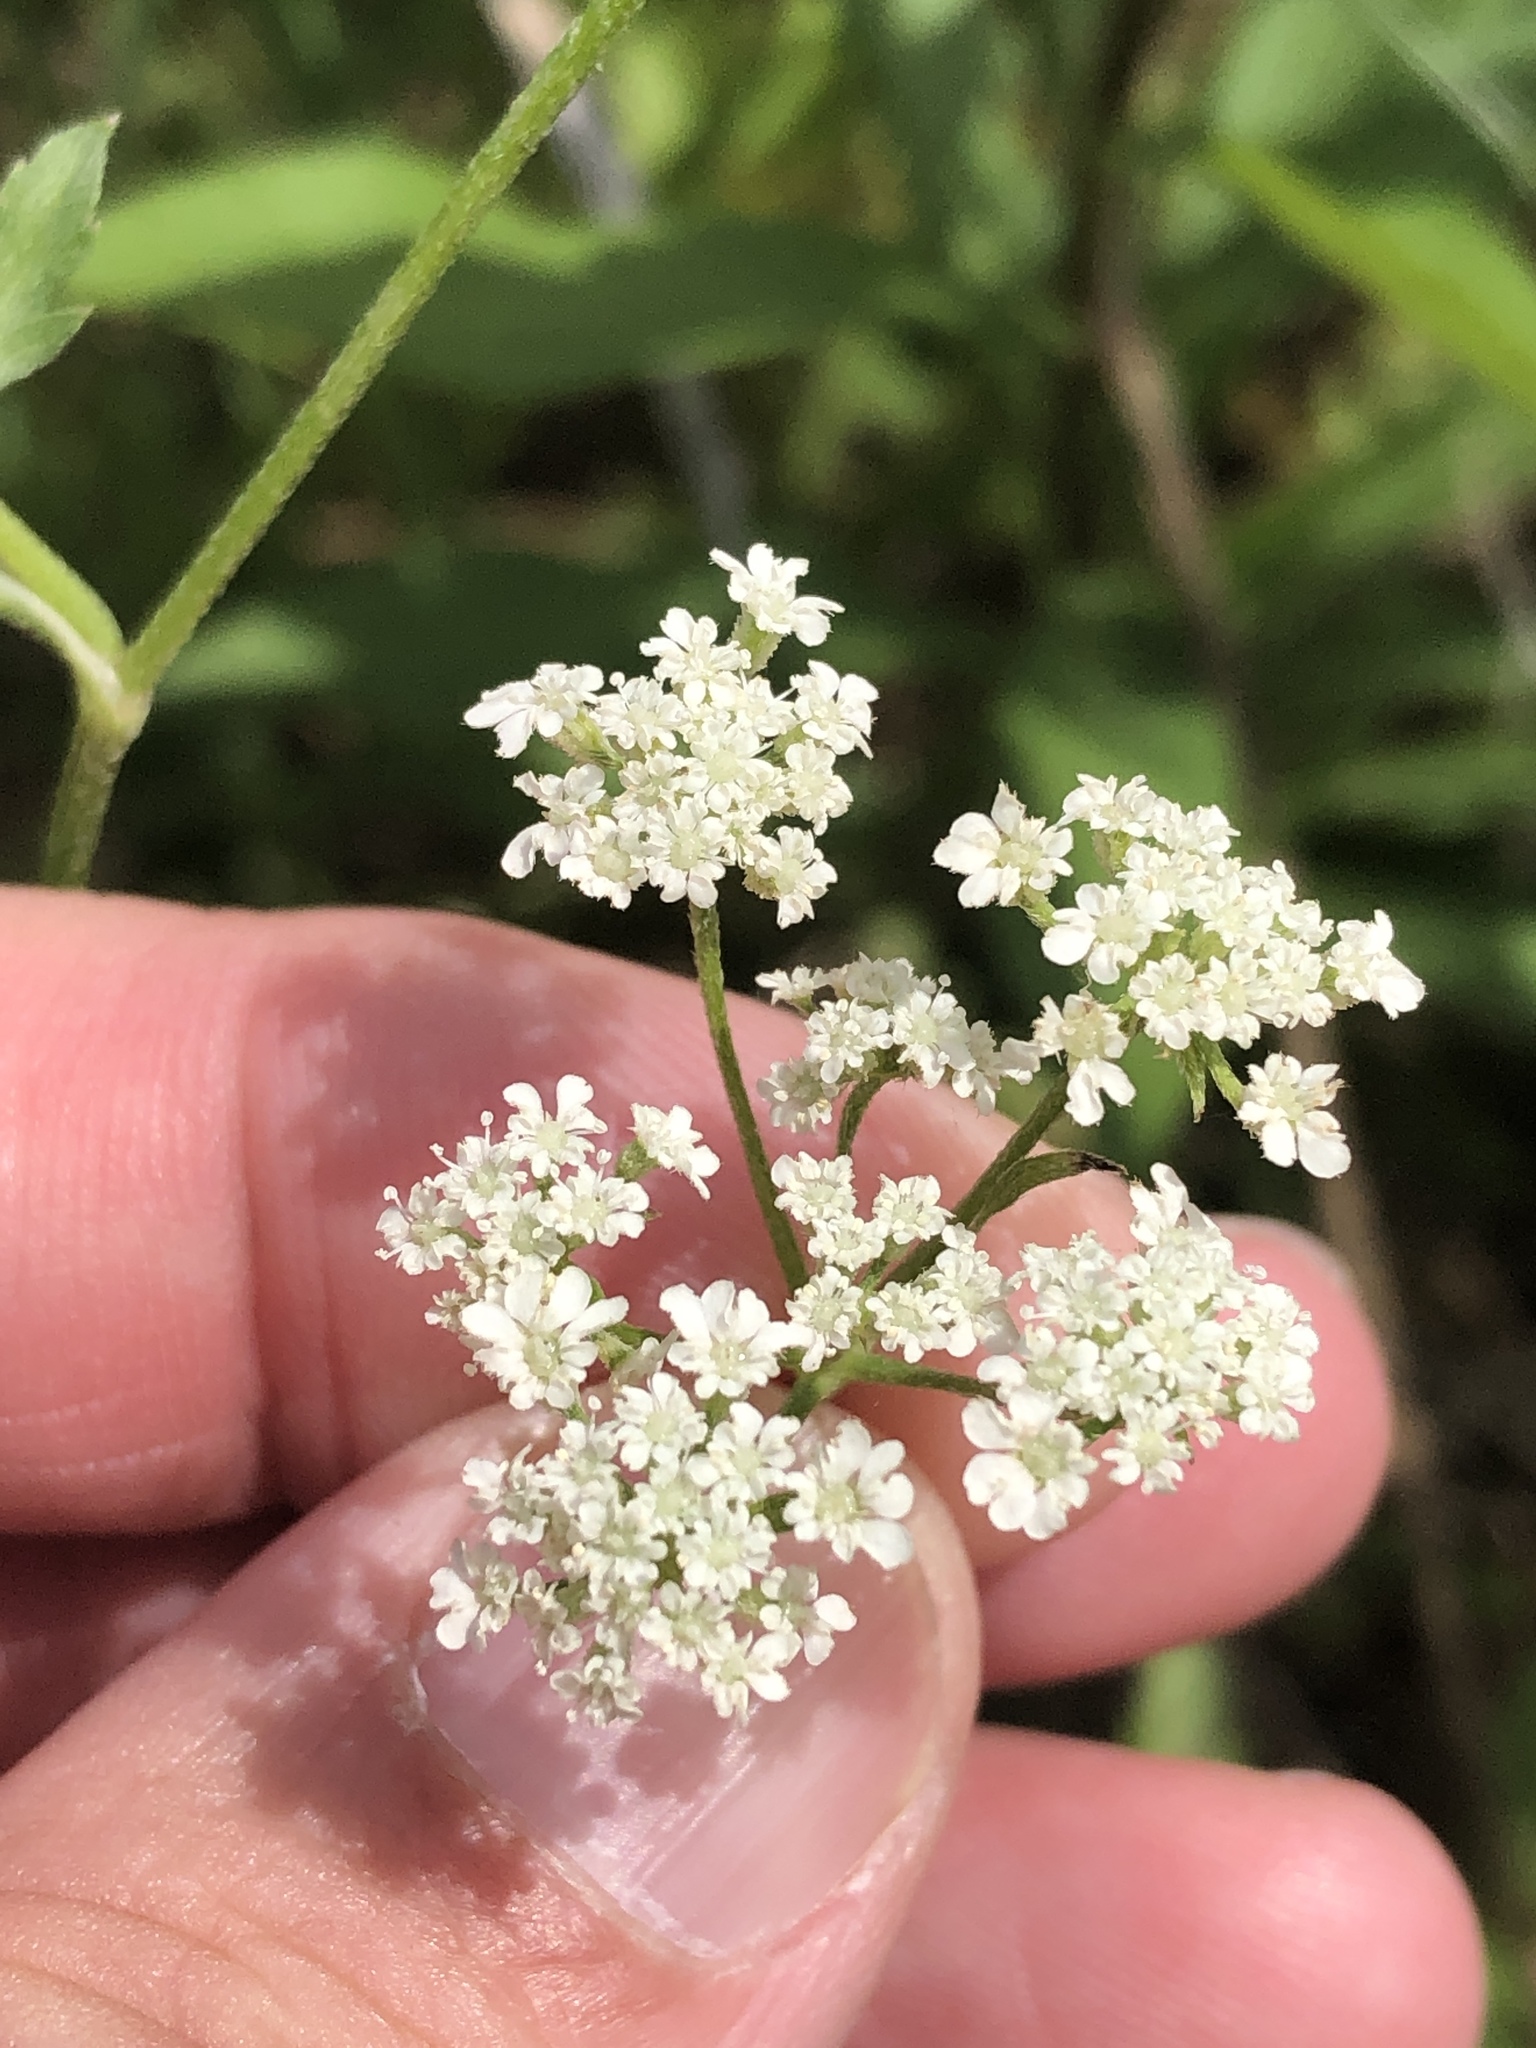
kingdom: Plantae
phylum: Tracheophyta
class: Magnoliopsida
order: Apiales
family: Apiaceae
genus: Torilis
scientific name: Torilis arvensis
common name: Spreading hedge-parsley
